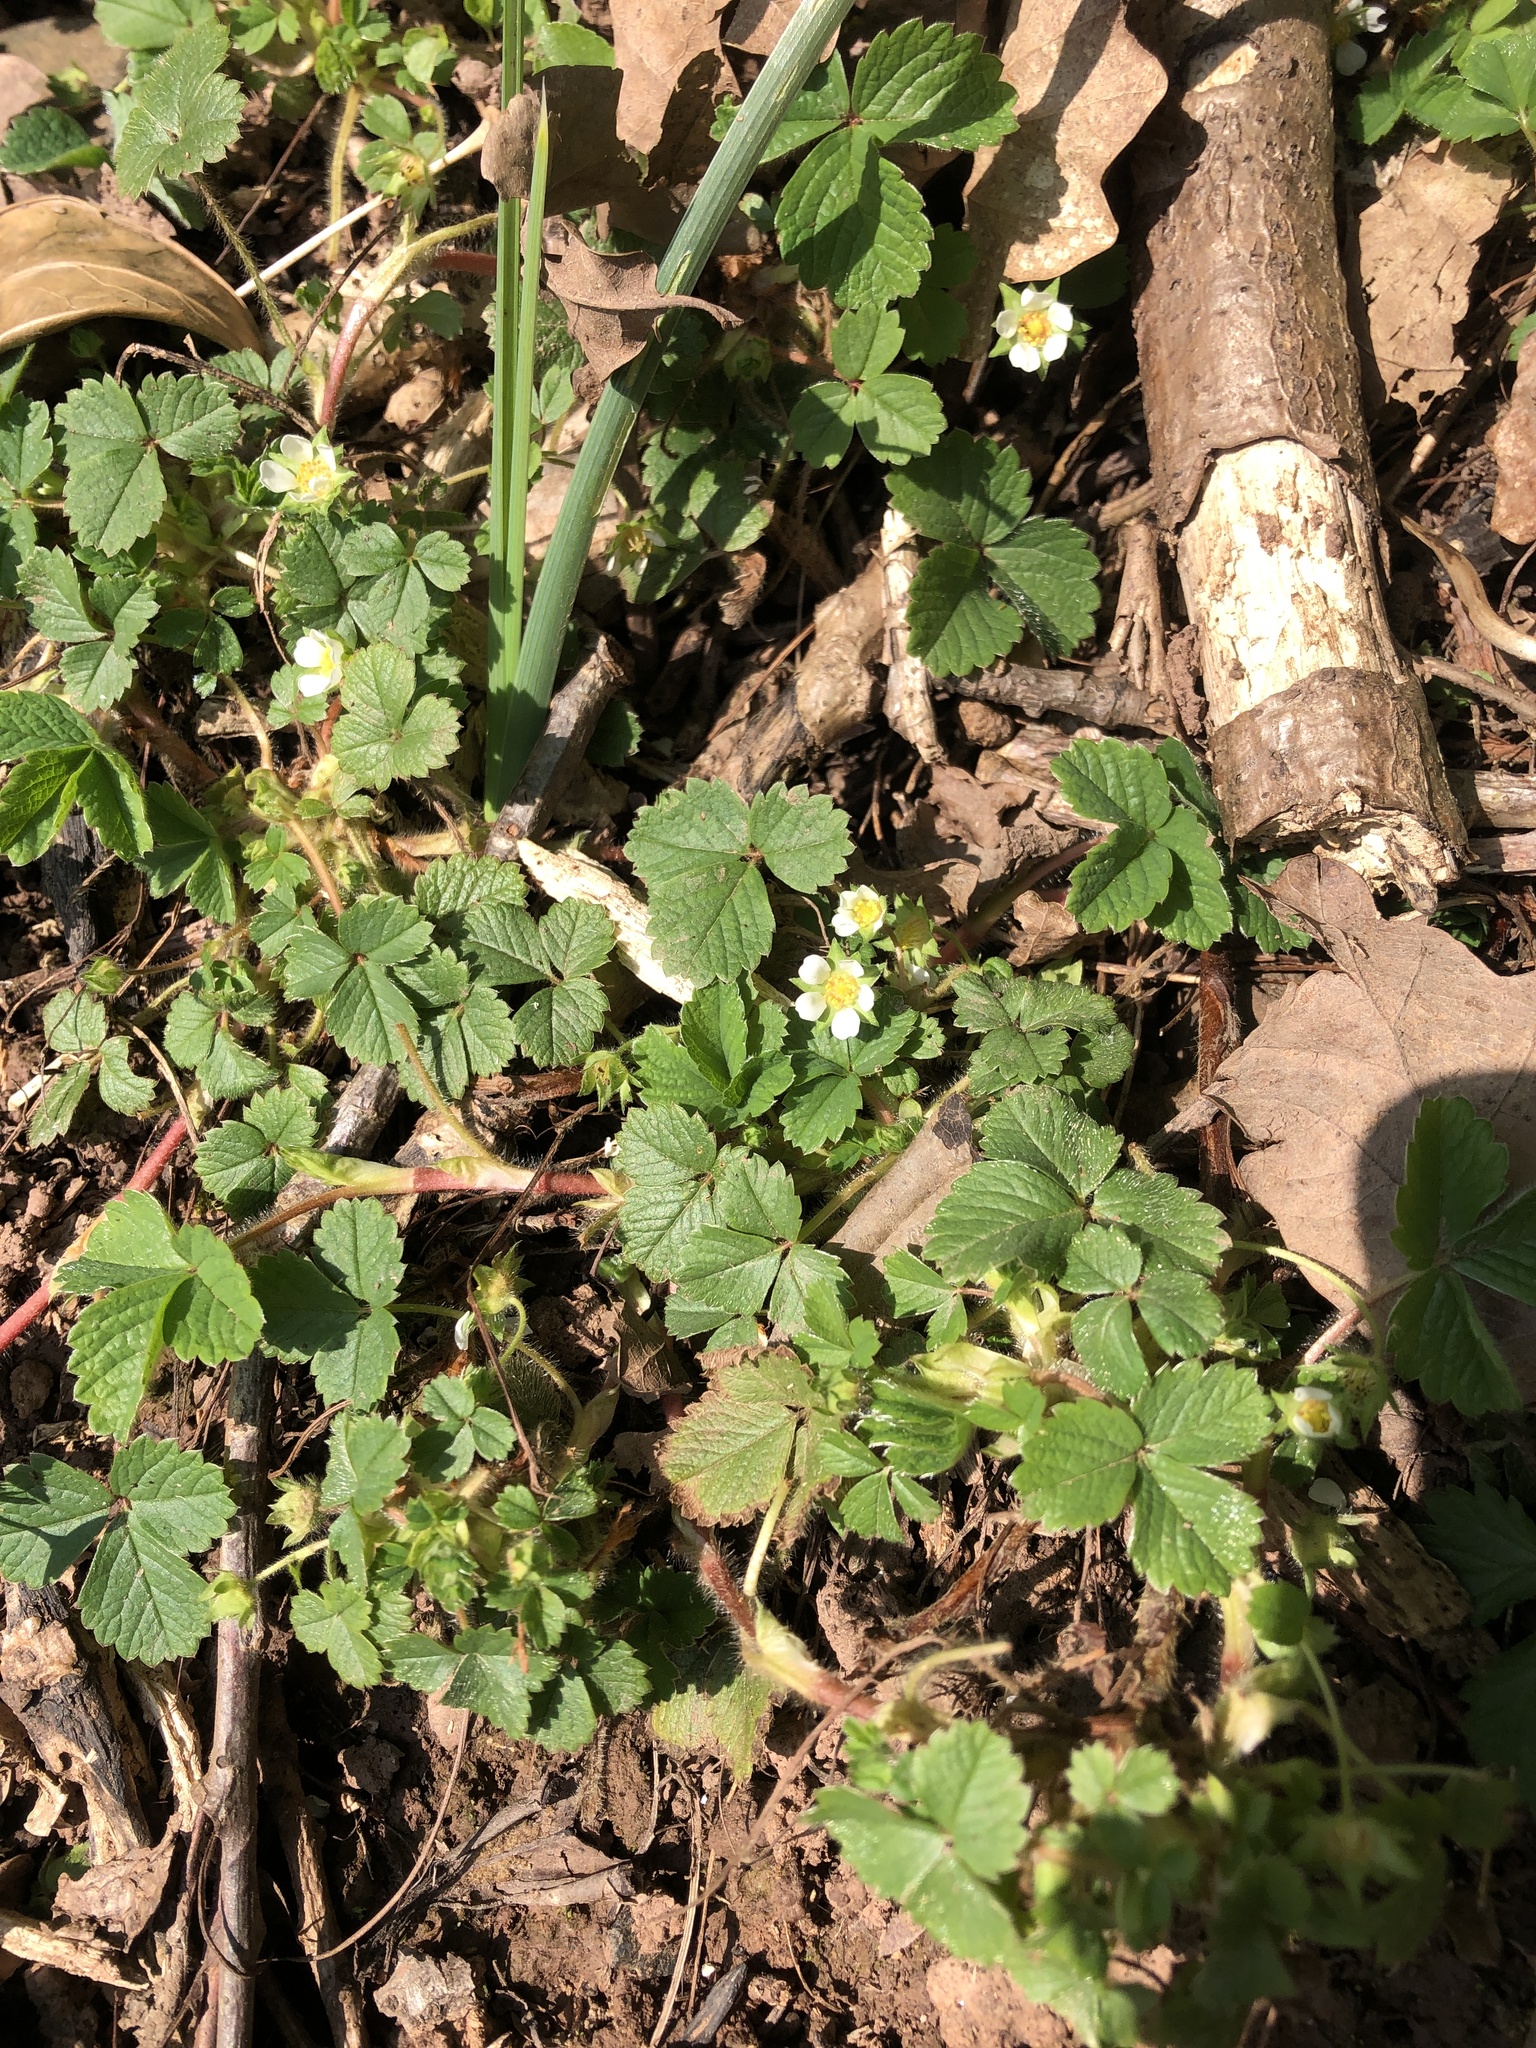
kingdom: Plantae
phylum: Tracheophyta
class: Magnoliopsida
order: Rosales
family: Rosaceae
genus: Potentilla
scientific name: Potentilla sterilis
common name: Barren strawberry
